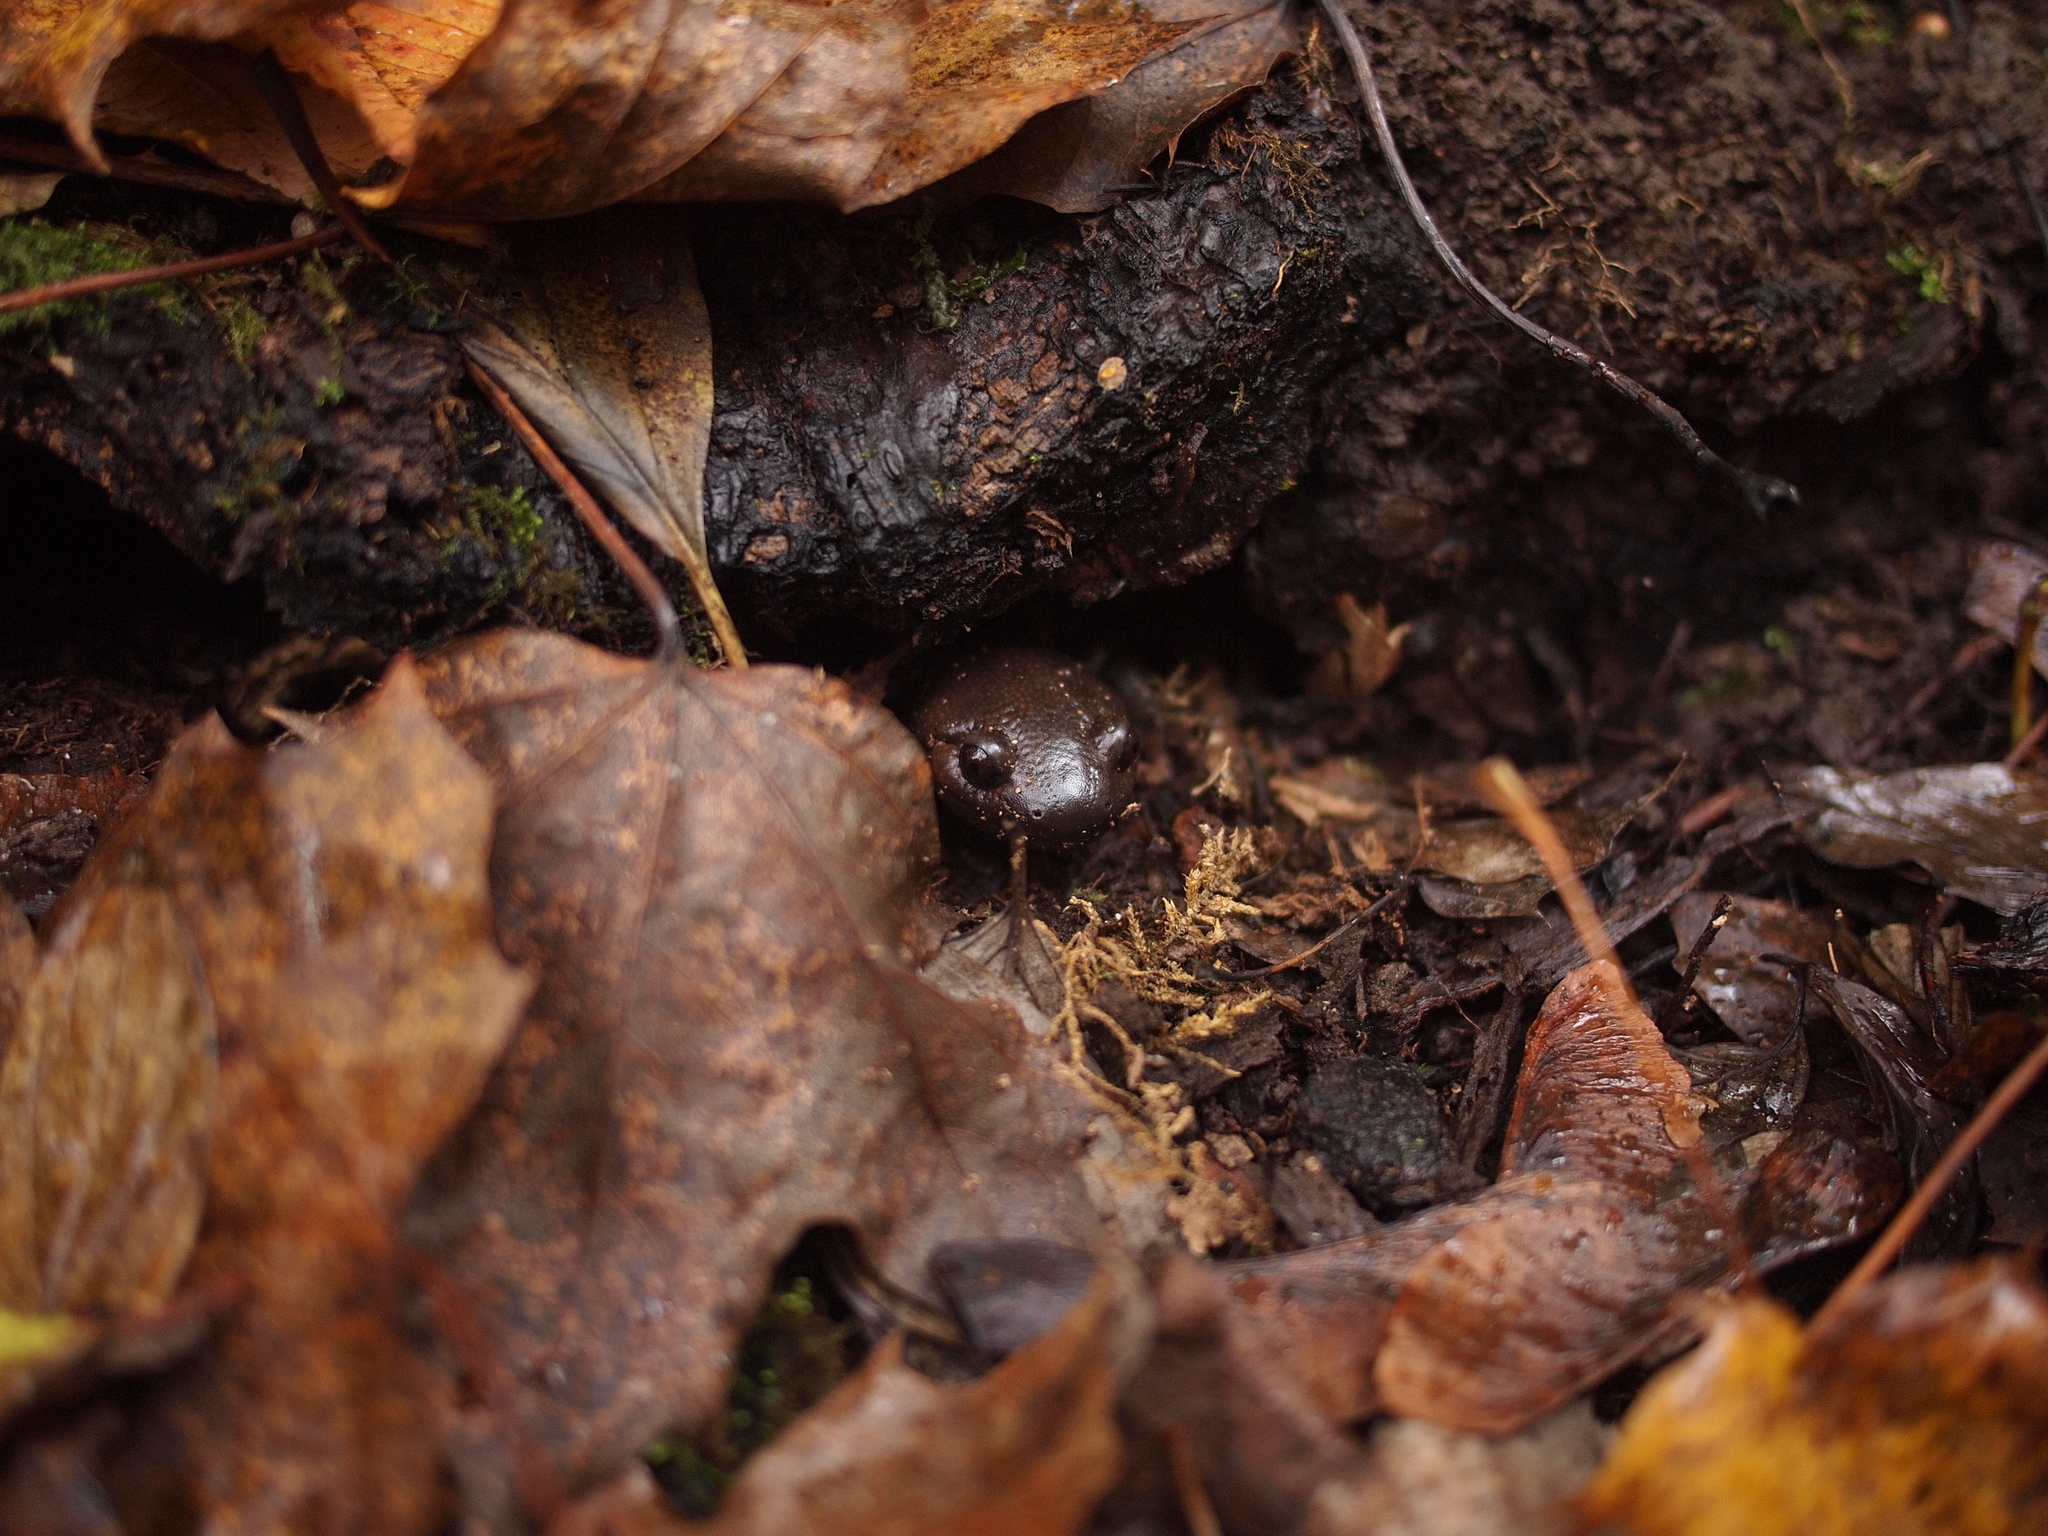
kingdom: Animalia
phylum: Chordata
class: Amphibia
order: Caudata
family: Ambystomatidae
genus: Ambystoma
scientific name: Ambystoma gracile
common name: Northwestern salamander
